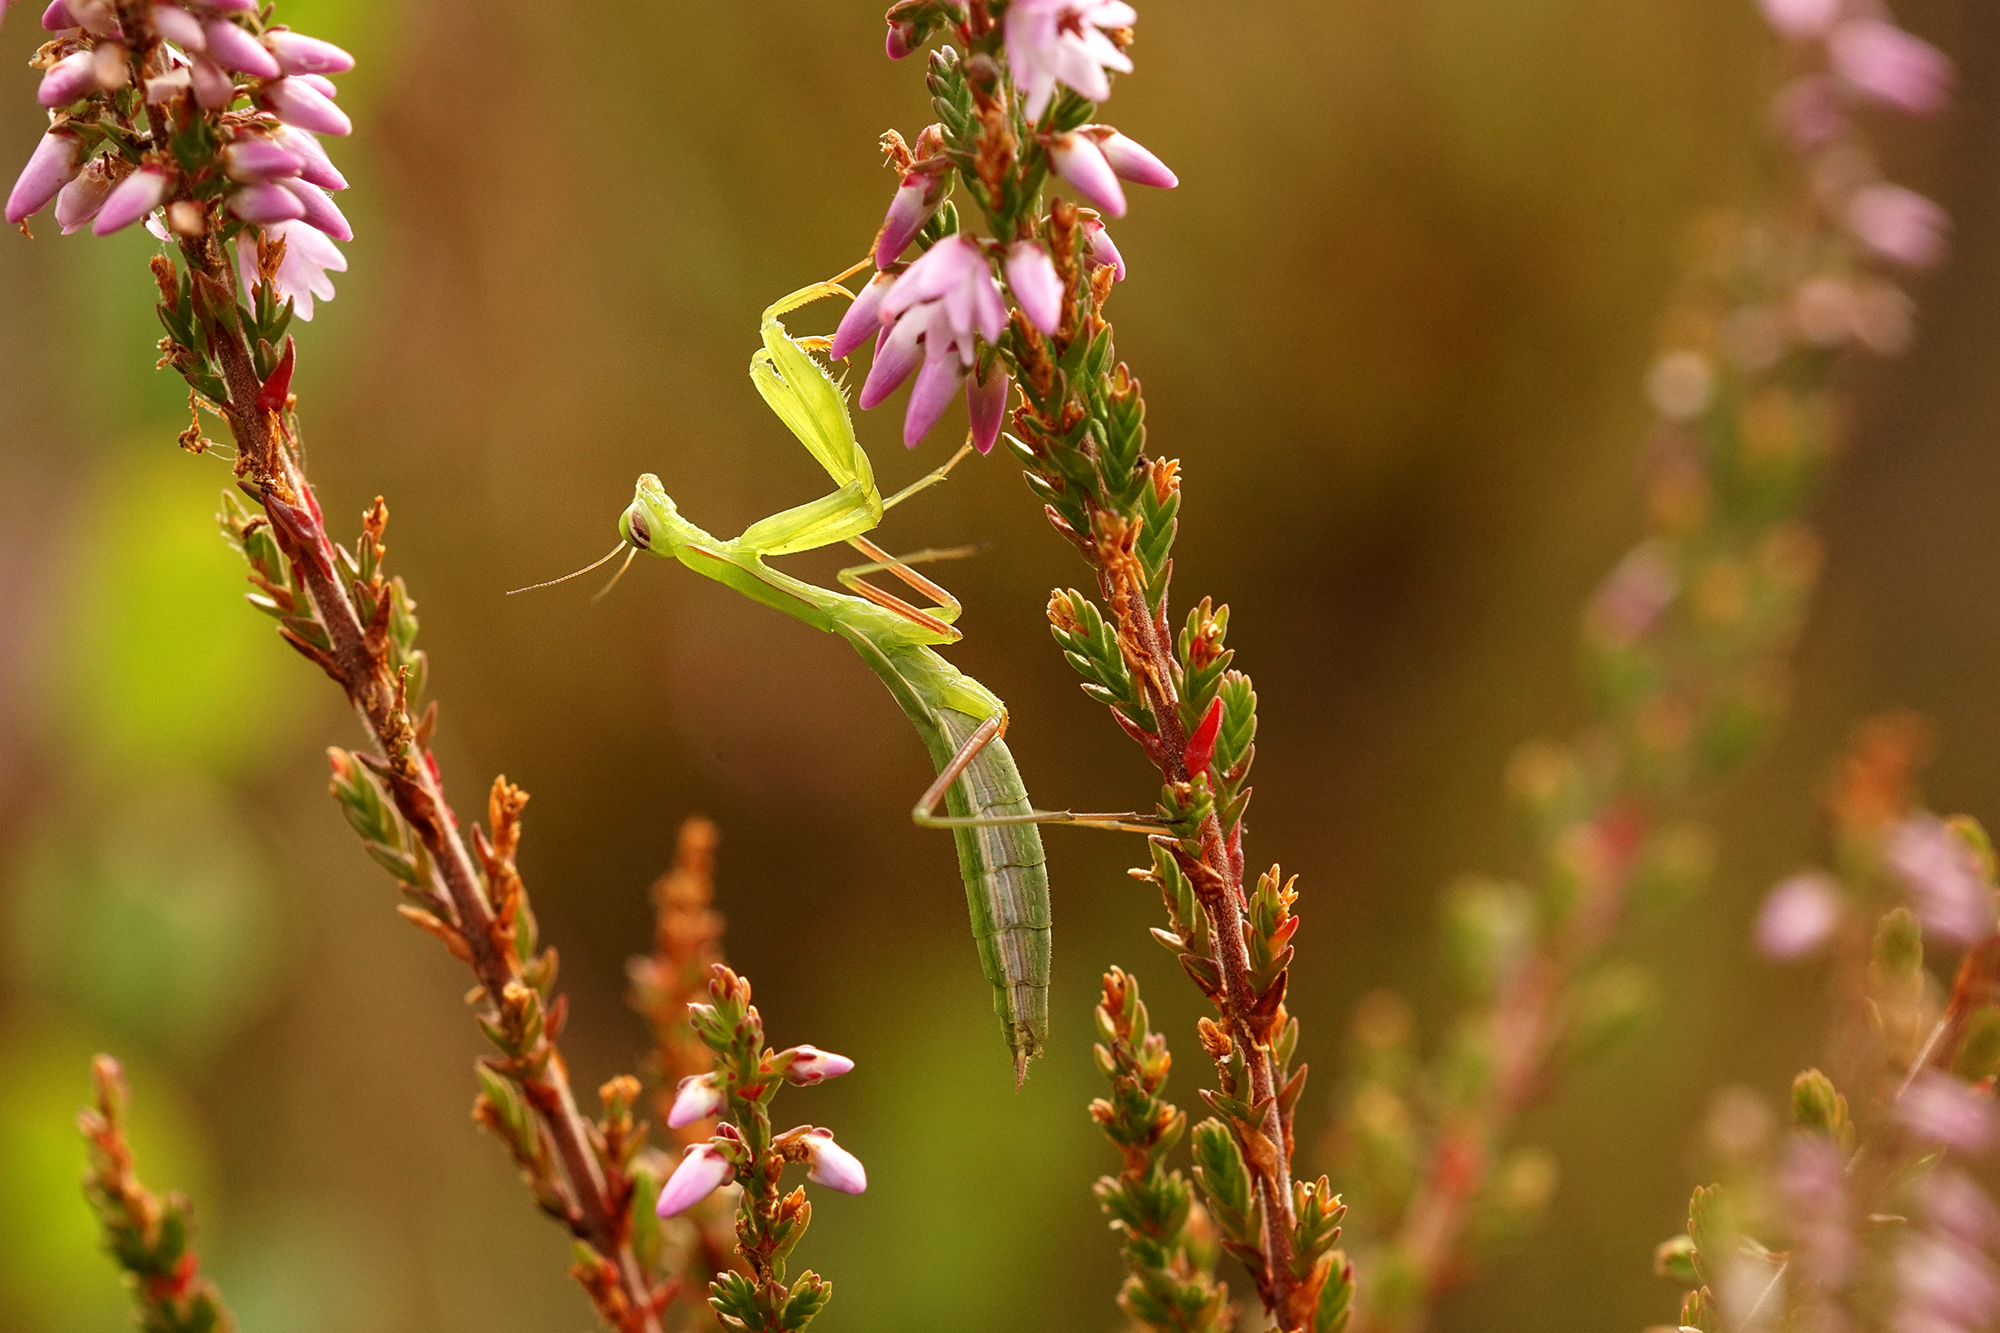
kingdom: Animalia
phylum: Arthropoda
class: Insecta
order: Mantodea
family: Mantidae
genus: Mantis
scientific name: Mantis religiosa
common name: Praying mantis
